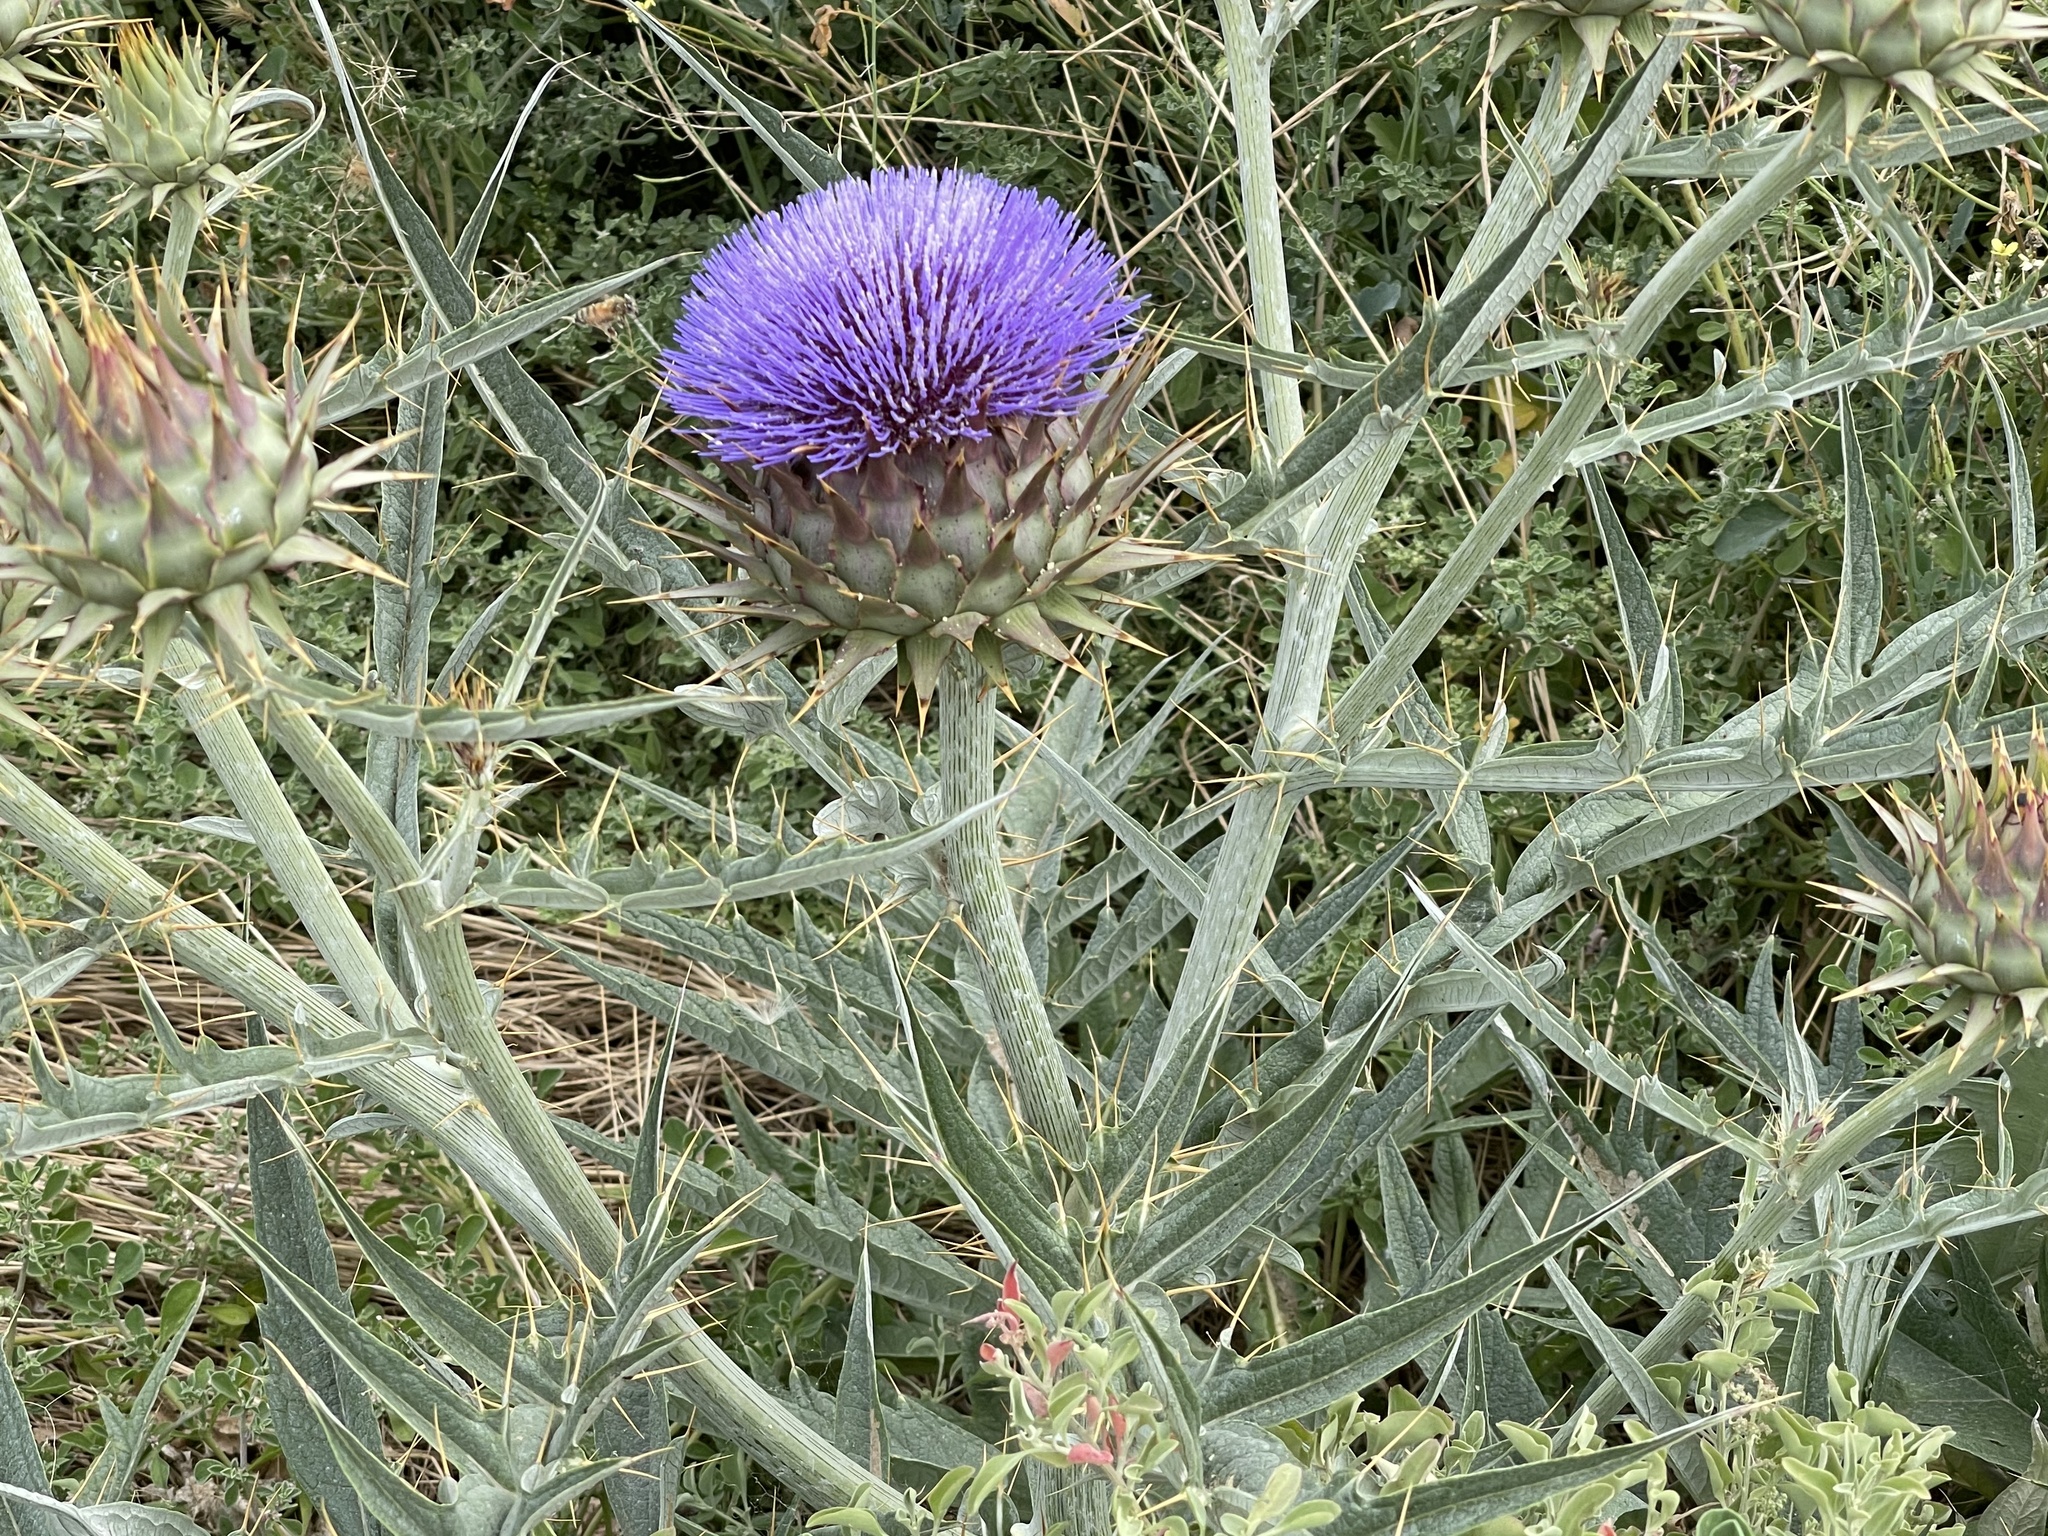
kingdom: Plantae
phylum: Tracheophyta
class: Magnoliopsida
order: Asterales
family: Asteraceae
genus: Cynara
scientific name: Cynara cardunculus
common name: Globe artichoke
